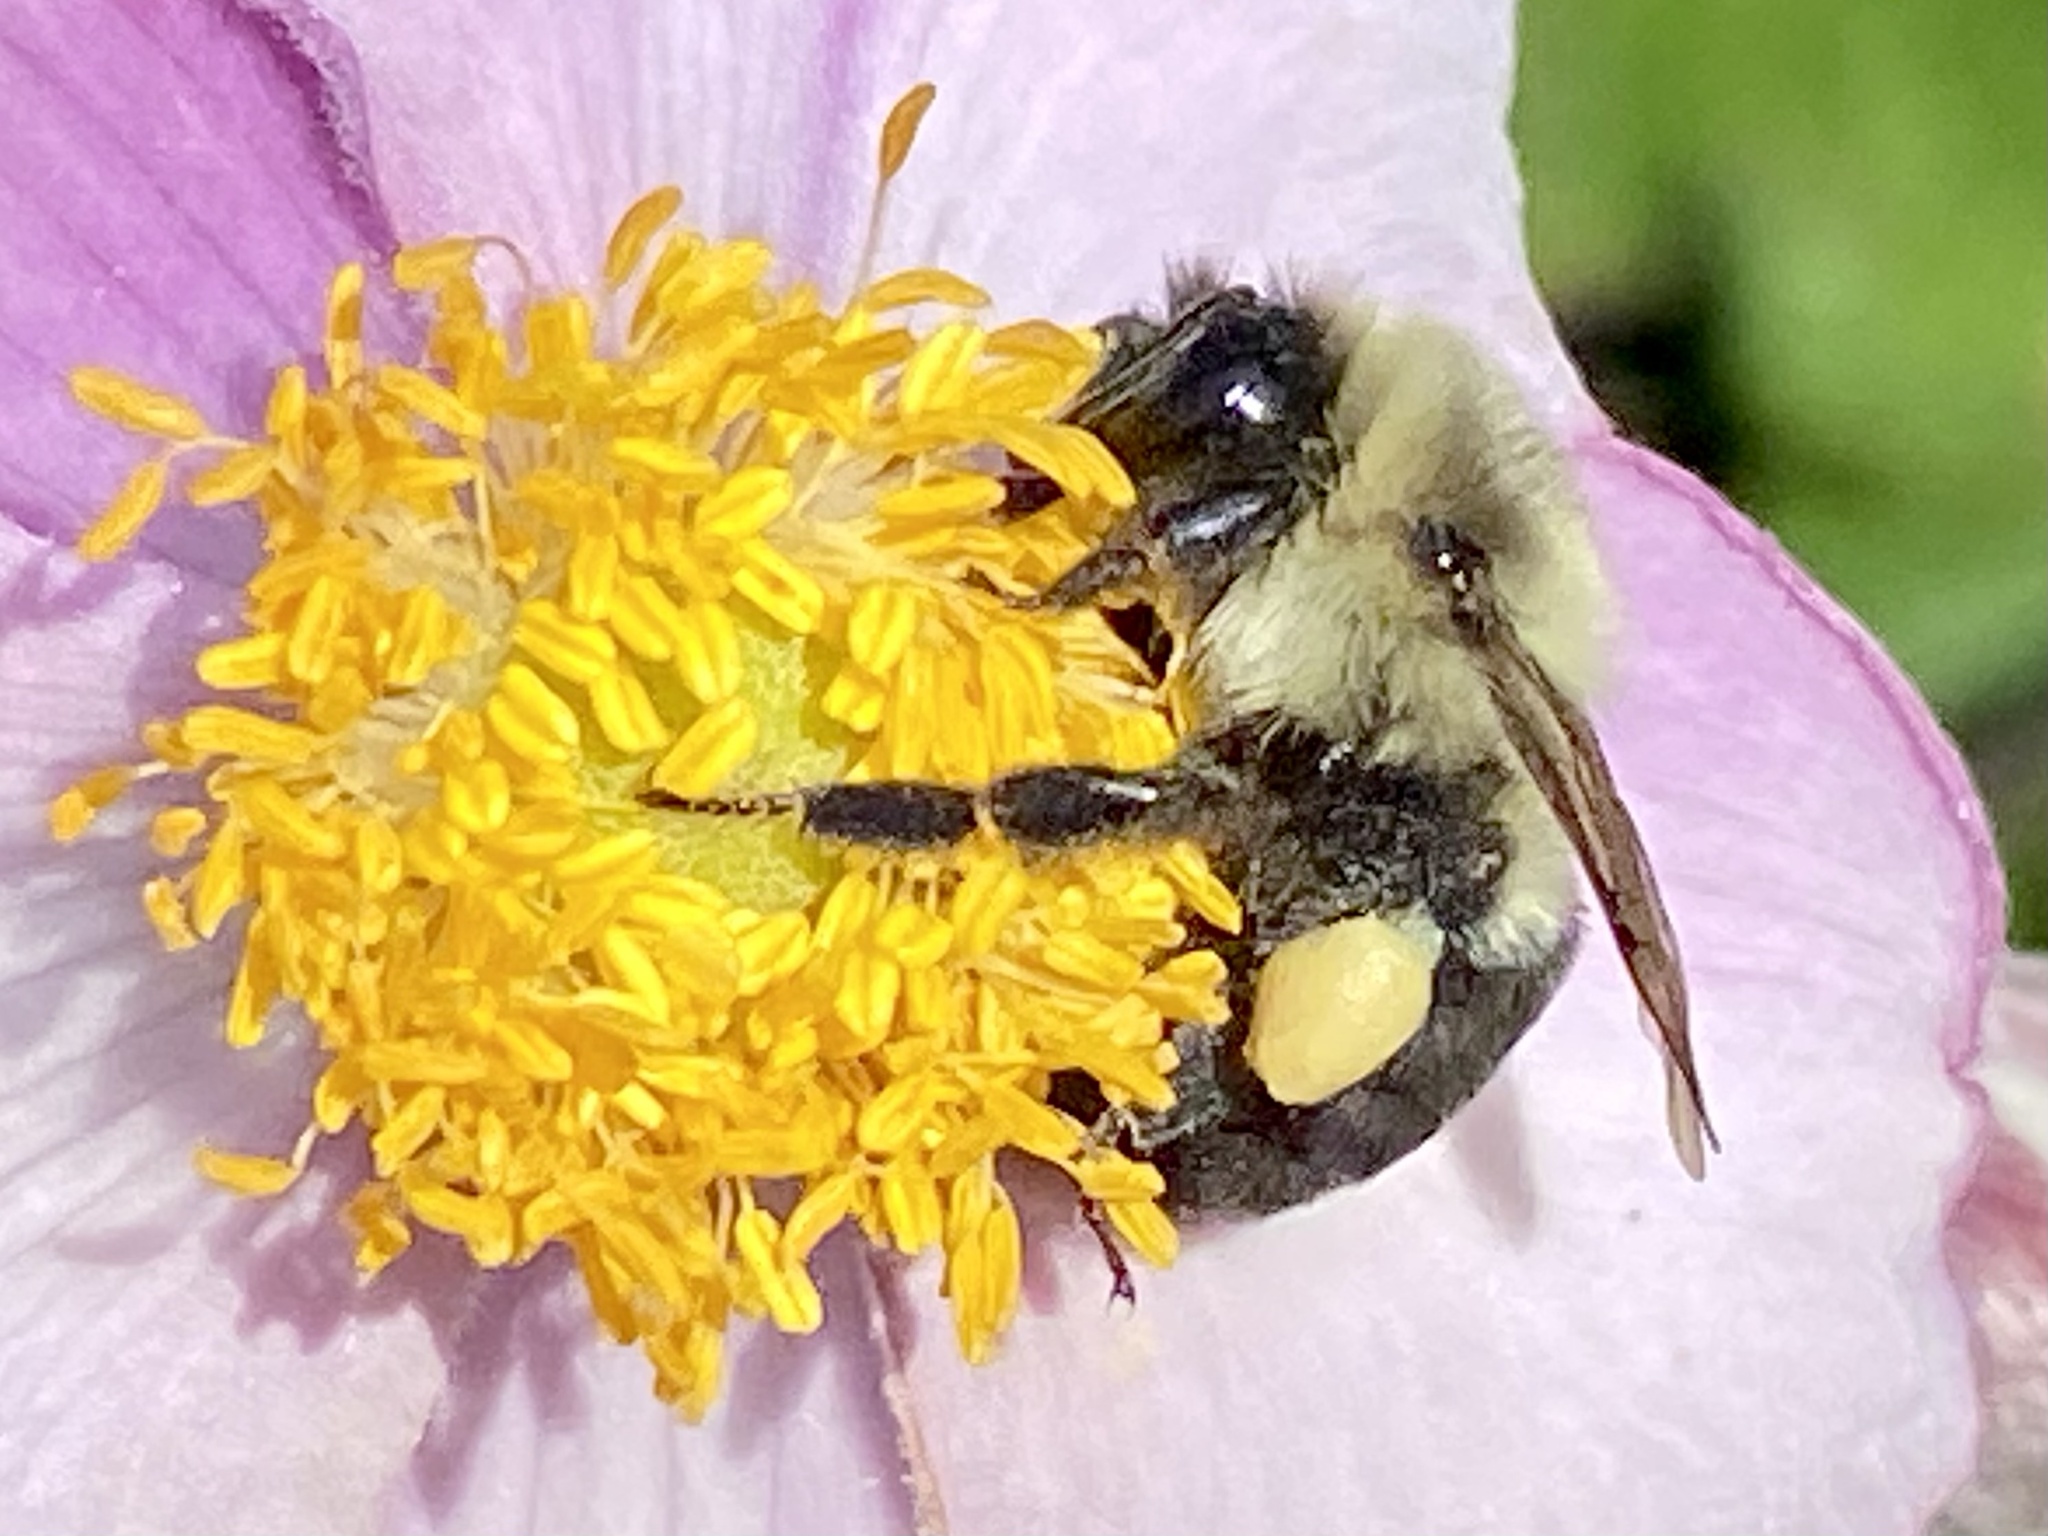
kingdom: Animalia
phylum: Arthropoda
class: Insecta
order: Hymenoptera
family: Apidae
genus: Bombus
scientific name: Bombus impatiens
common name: Common eastern bumble bee
